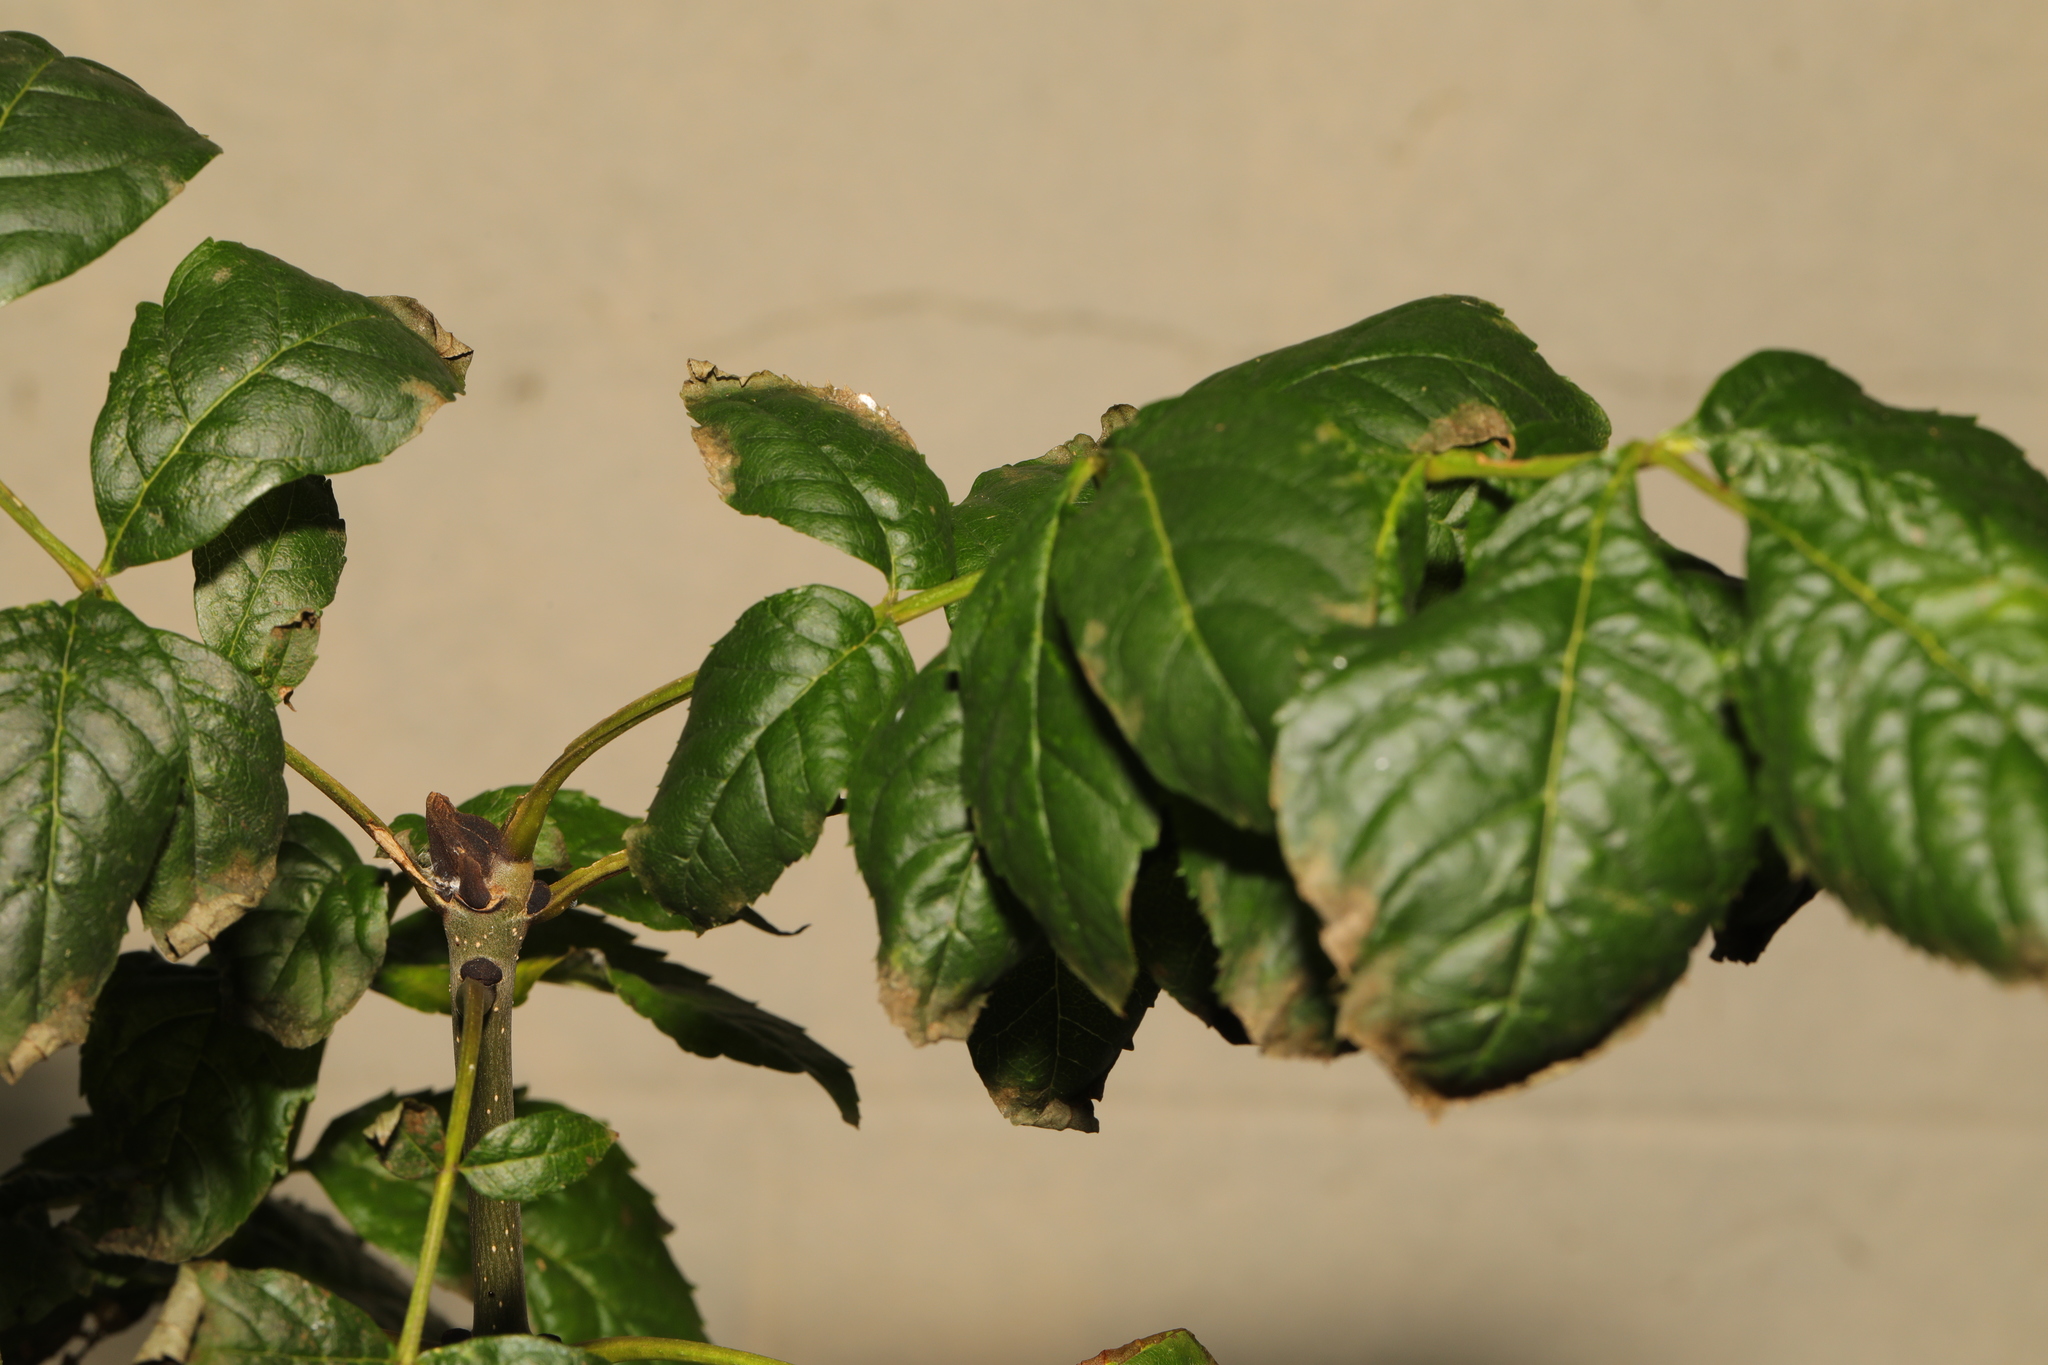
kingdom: Plantae
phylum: Tracheophyta
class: Magnoliopsida
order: Lamiales
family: Oleaceae
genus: Fraxinus
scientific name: Fraxinus excelsior
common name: European ash
